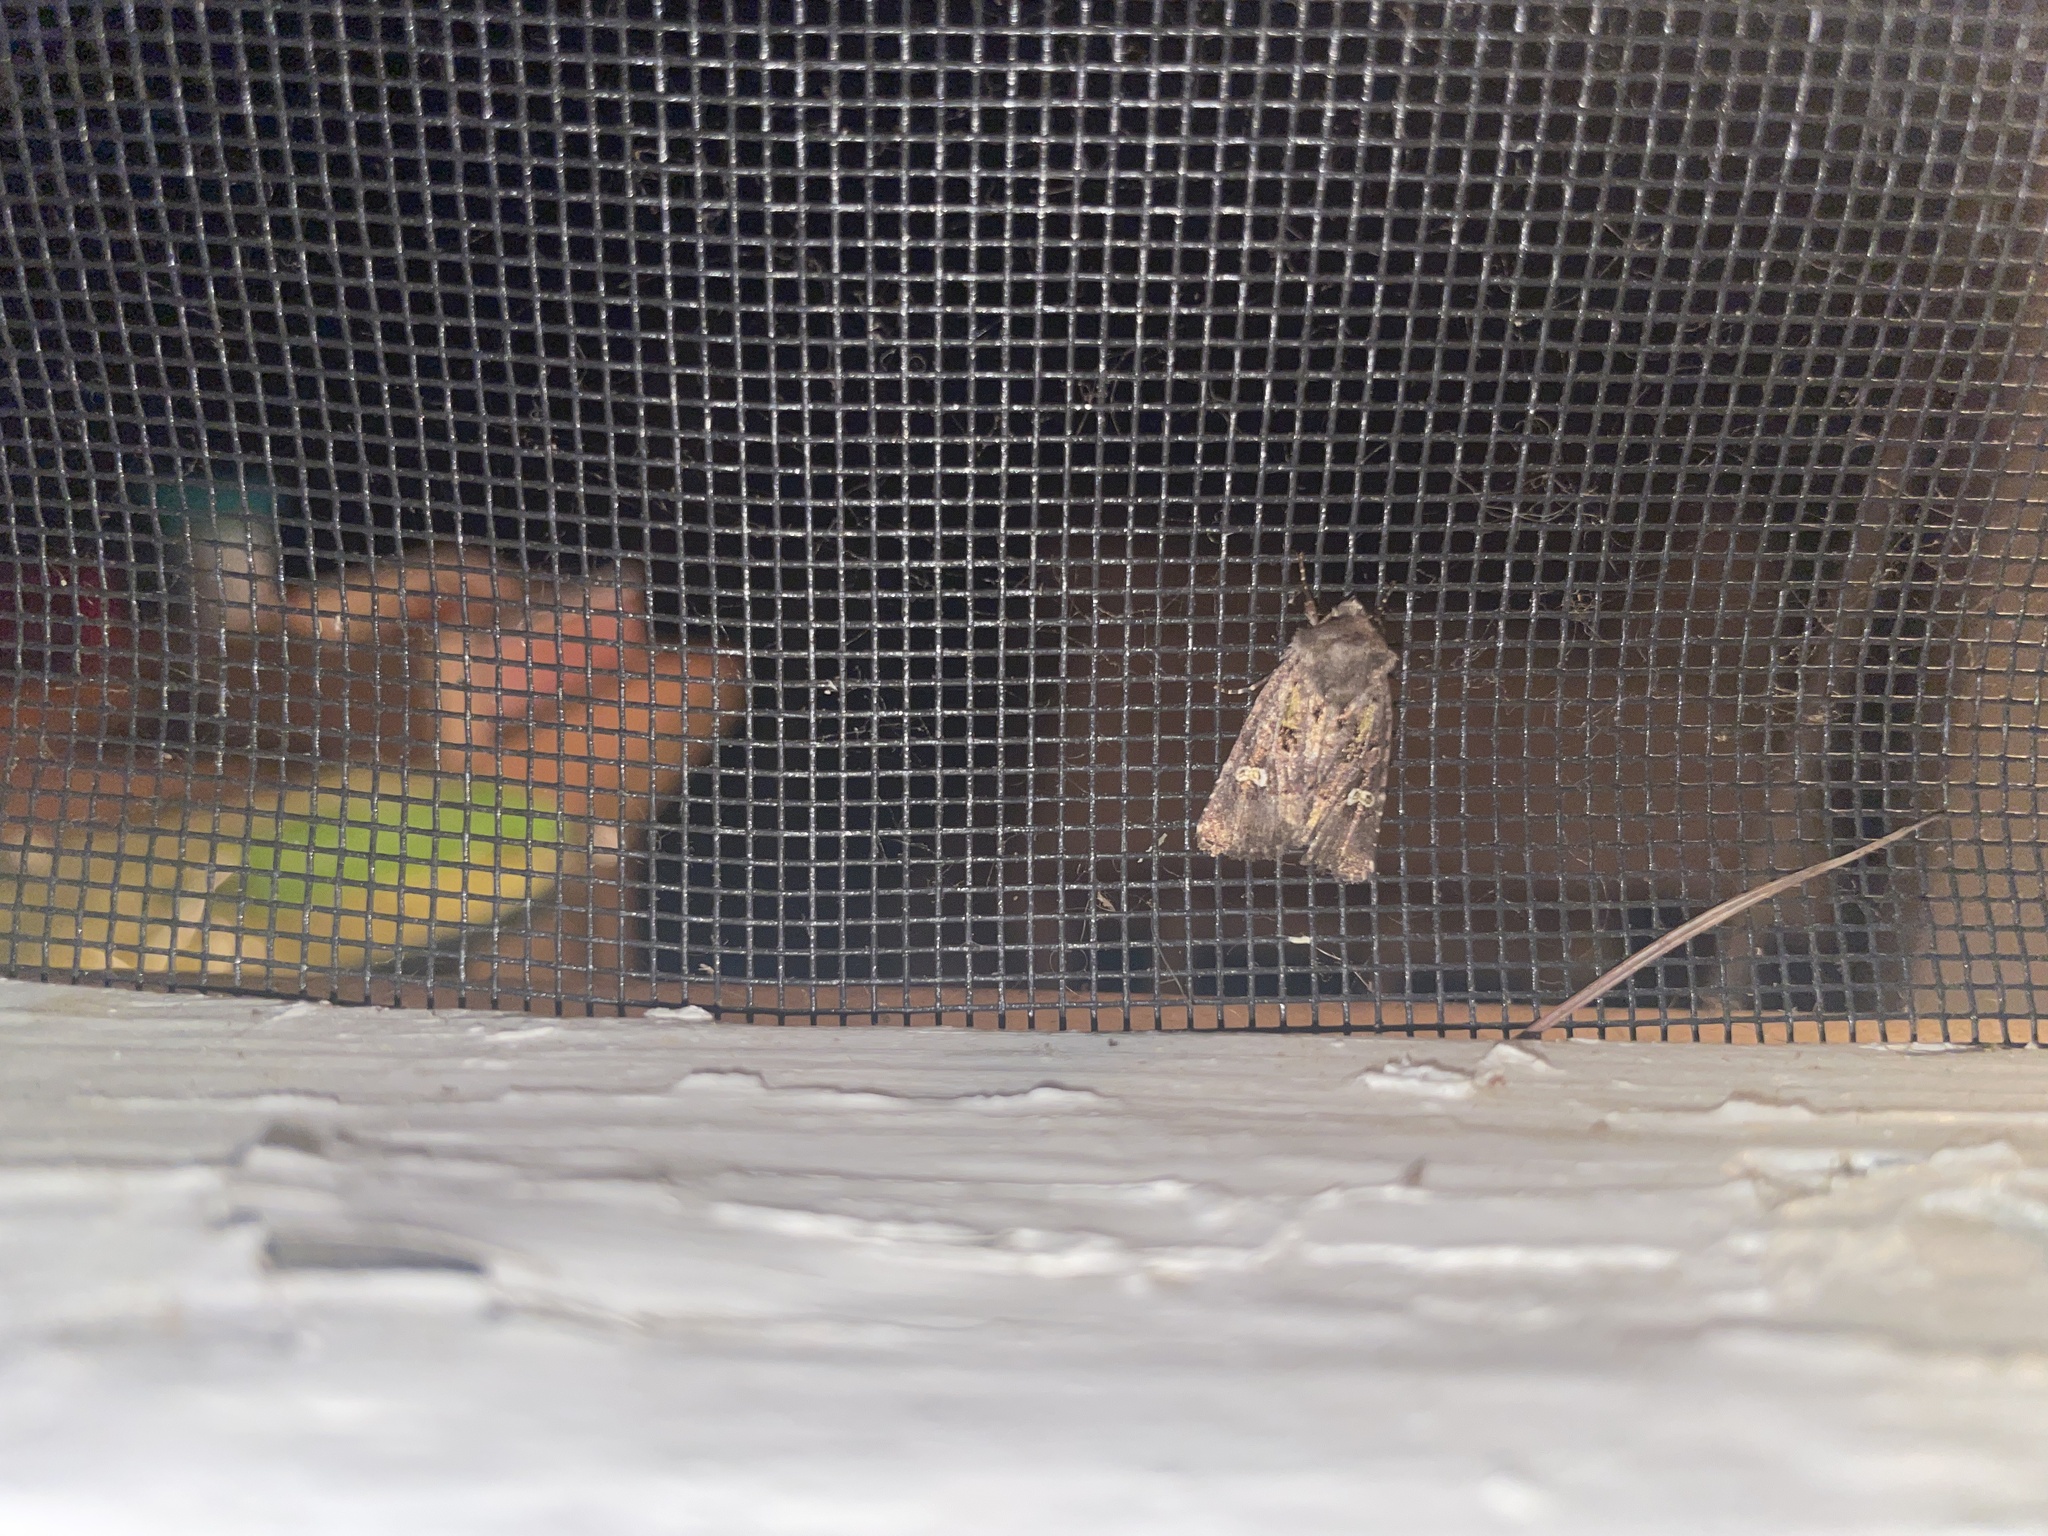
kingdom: Animalia
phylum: Arthropoda
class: Insecta
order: Lepidoptera
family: Noctuidae
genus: Lacinipolia
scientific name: Lacinipolia renigera
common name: Kidney-spotted minor
